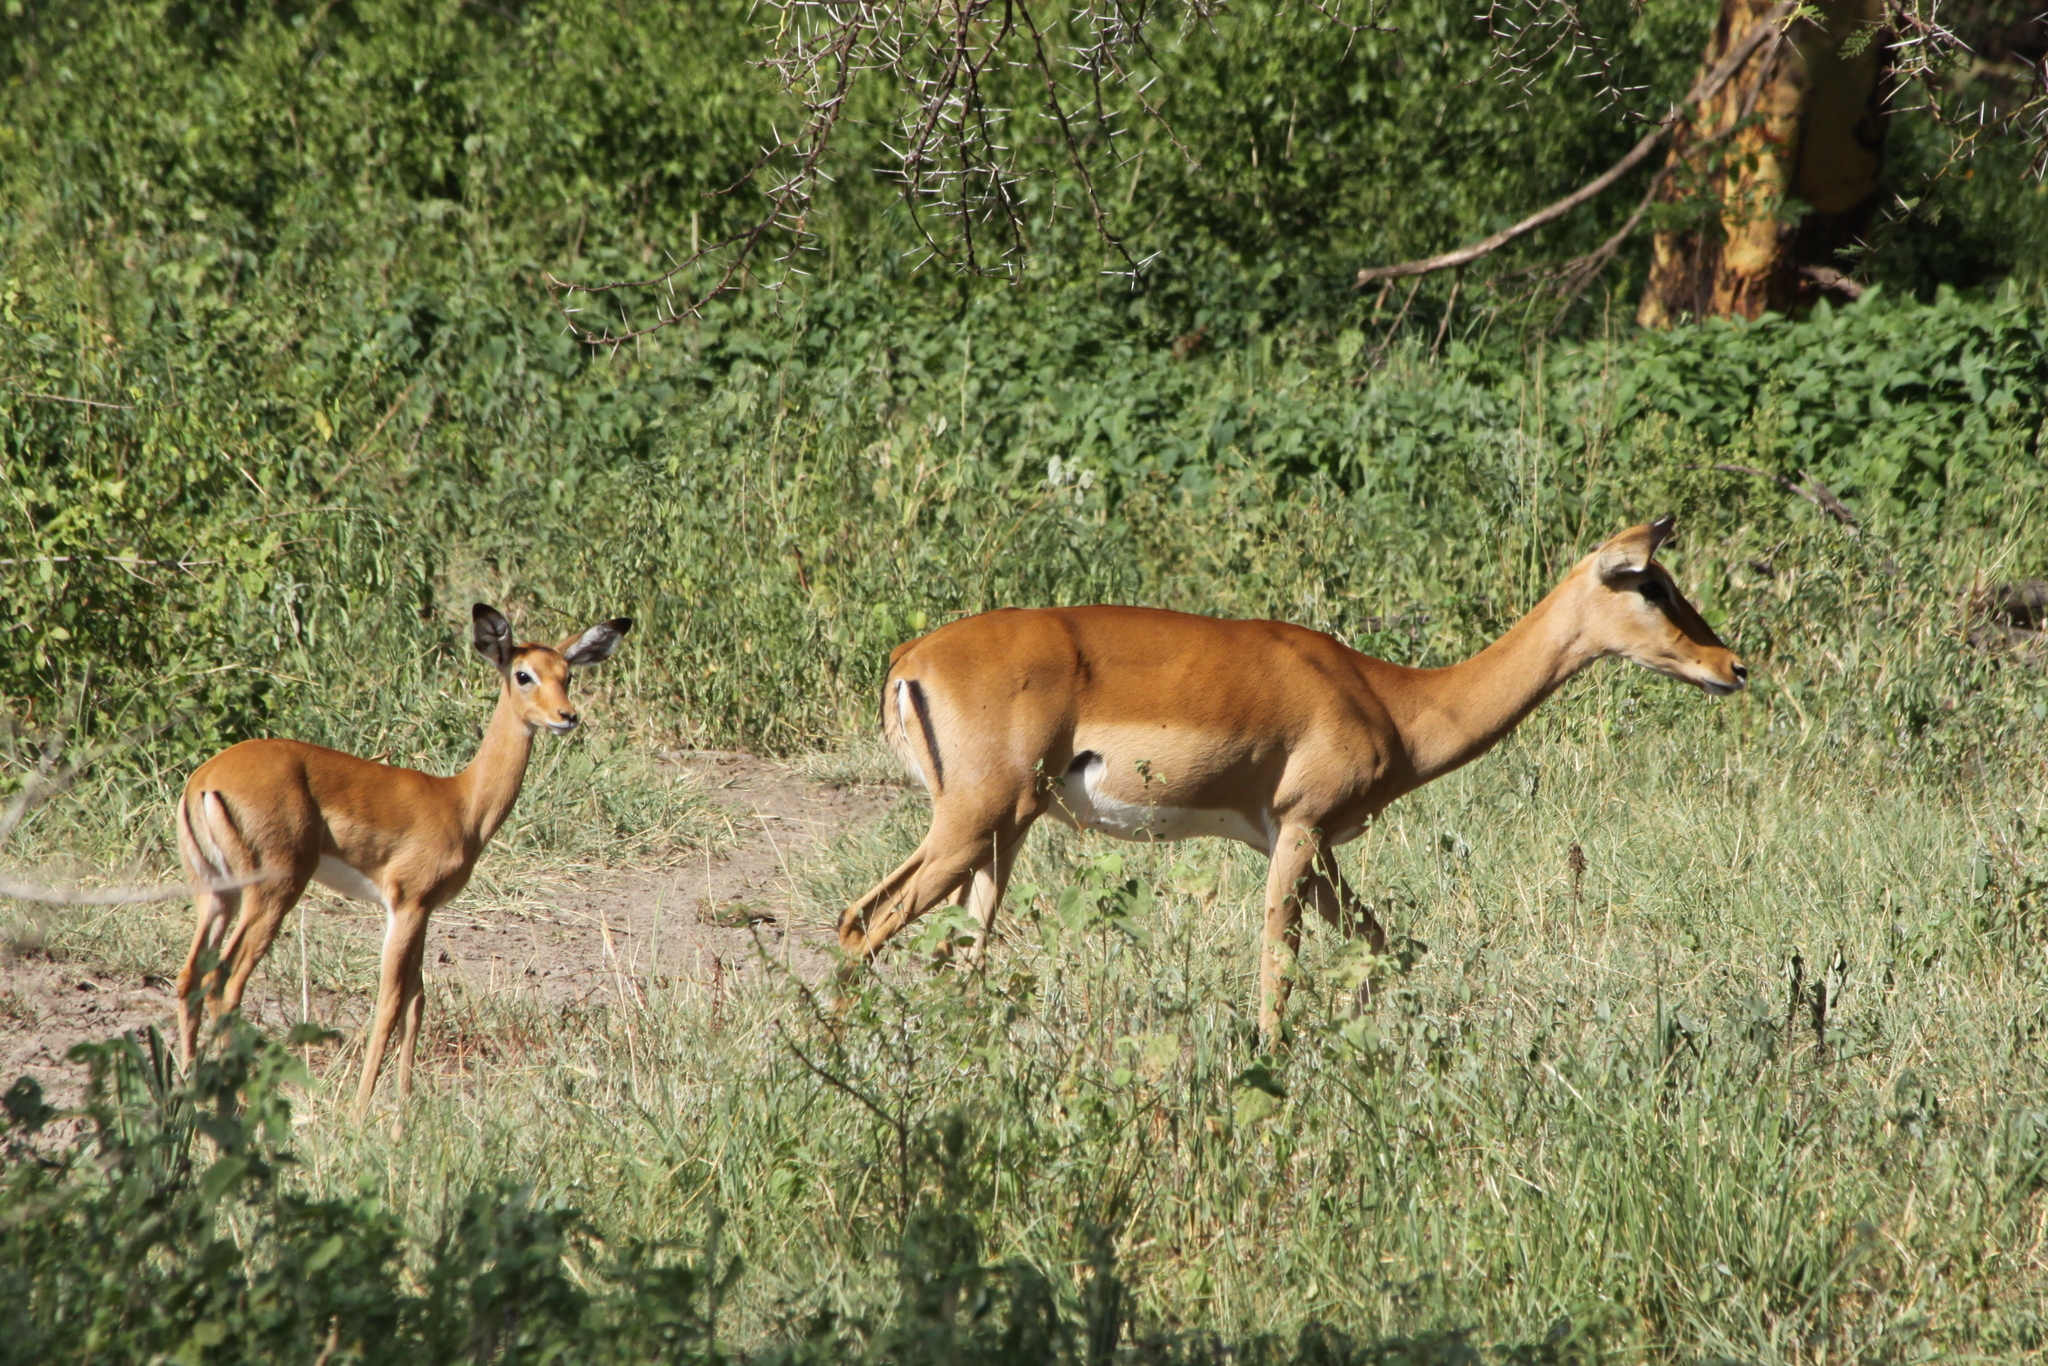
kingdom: Animalia
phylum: Chordata
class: Mammalia
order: Artiodactyla
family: Bovidae
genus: Aepyceros
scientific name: Aepyceros melampus
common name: Impala
